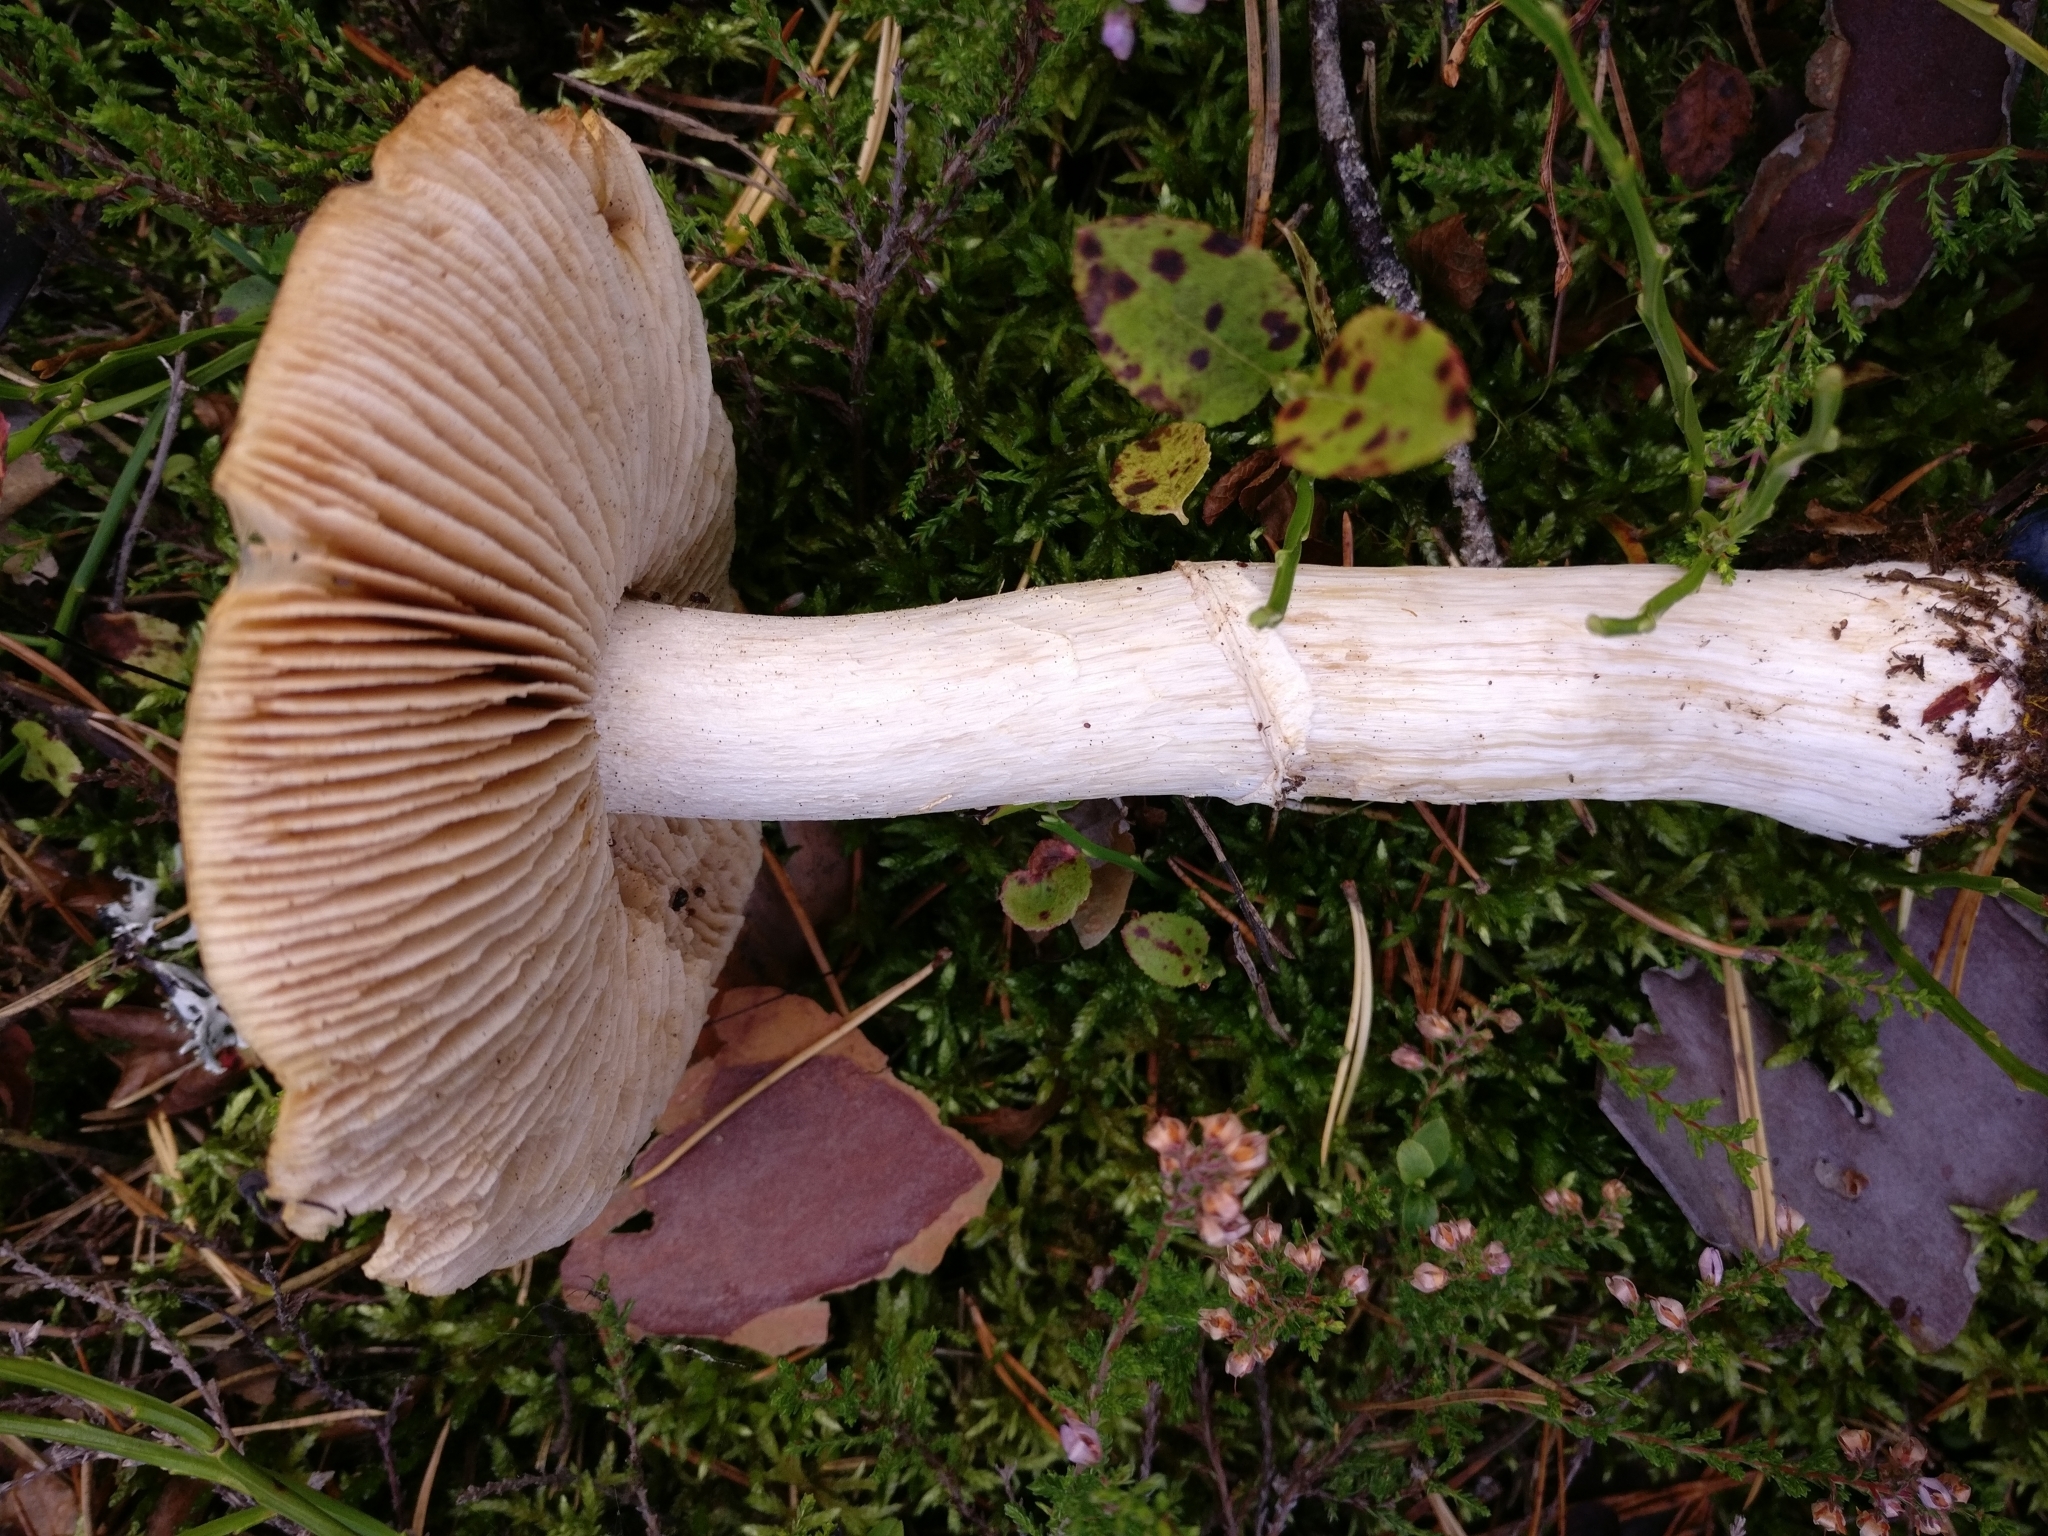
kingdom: Fungi
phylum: Basidiomycota
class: Agaricomycetes
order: Agaricales
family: Cortinariaceae
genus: Cortinarius
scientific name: Cortinarius caperatus
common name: The gypsy
